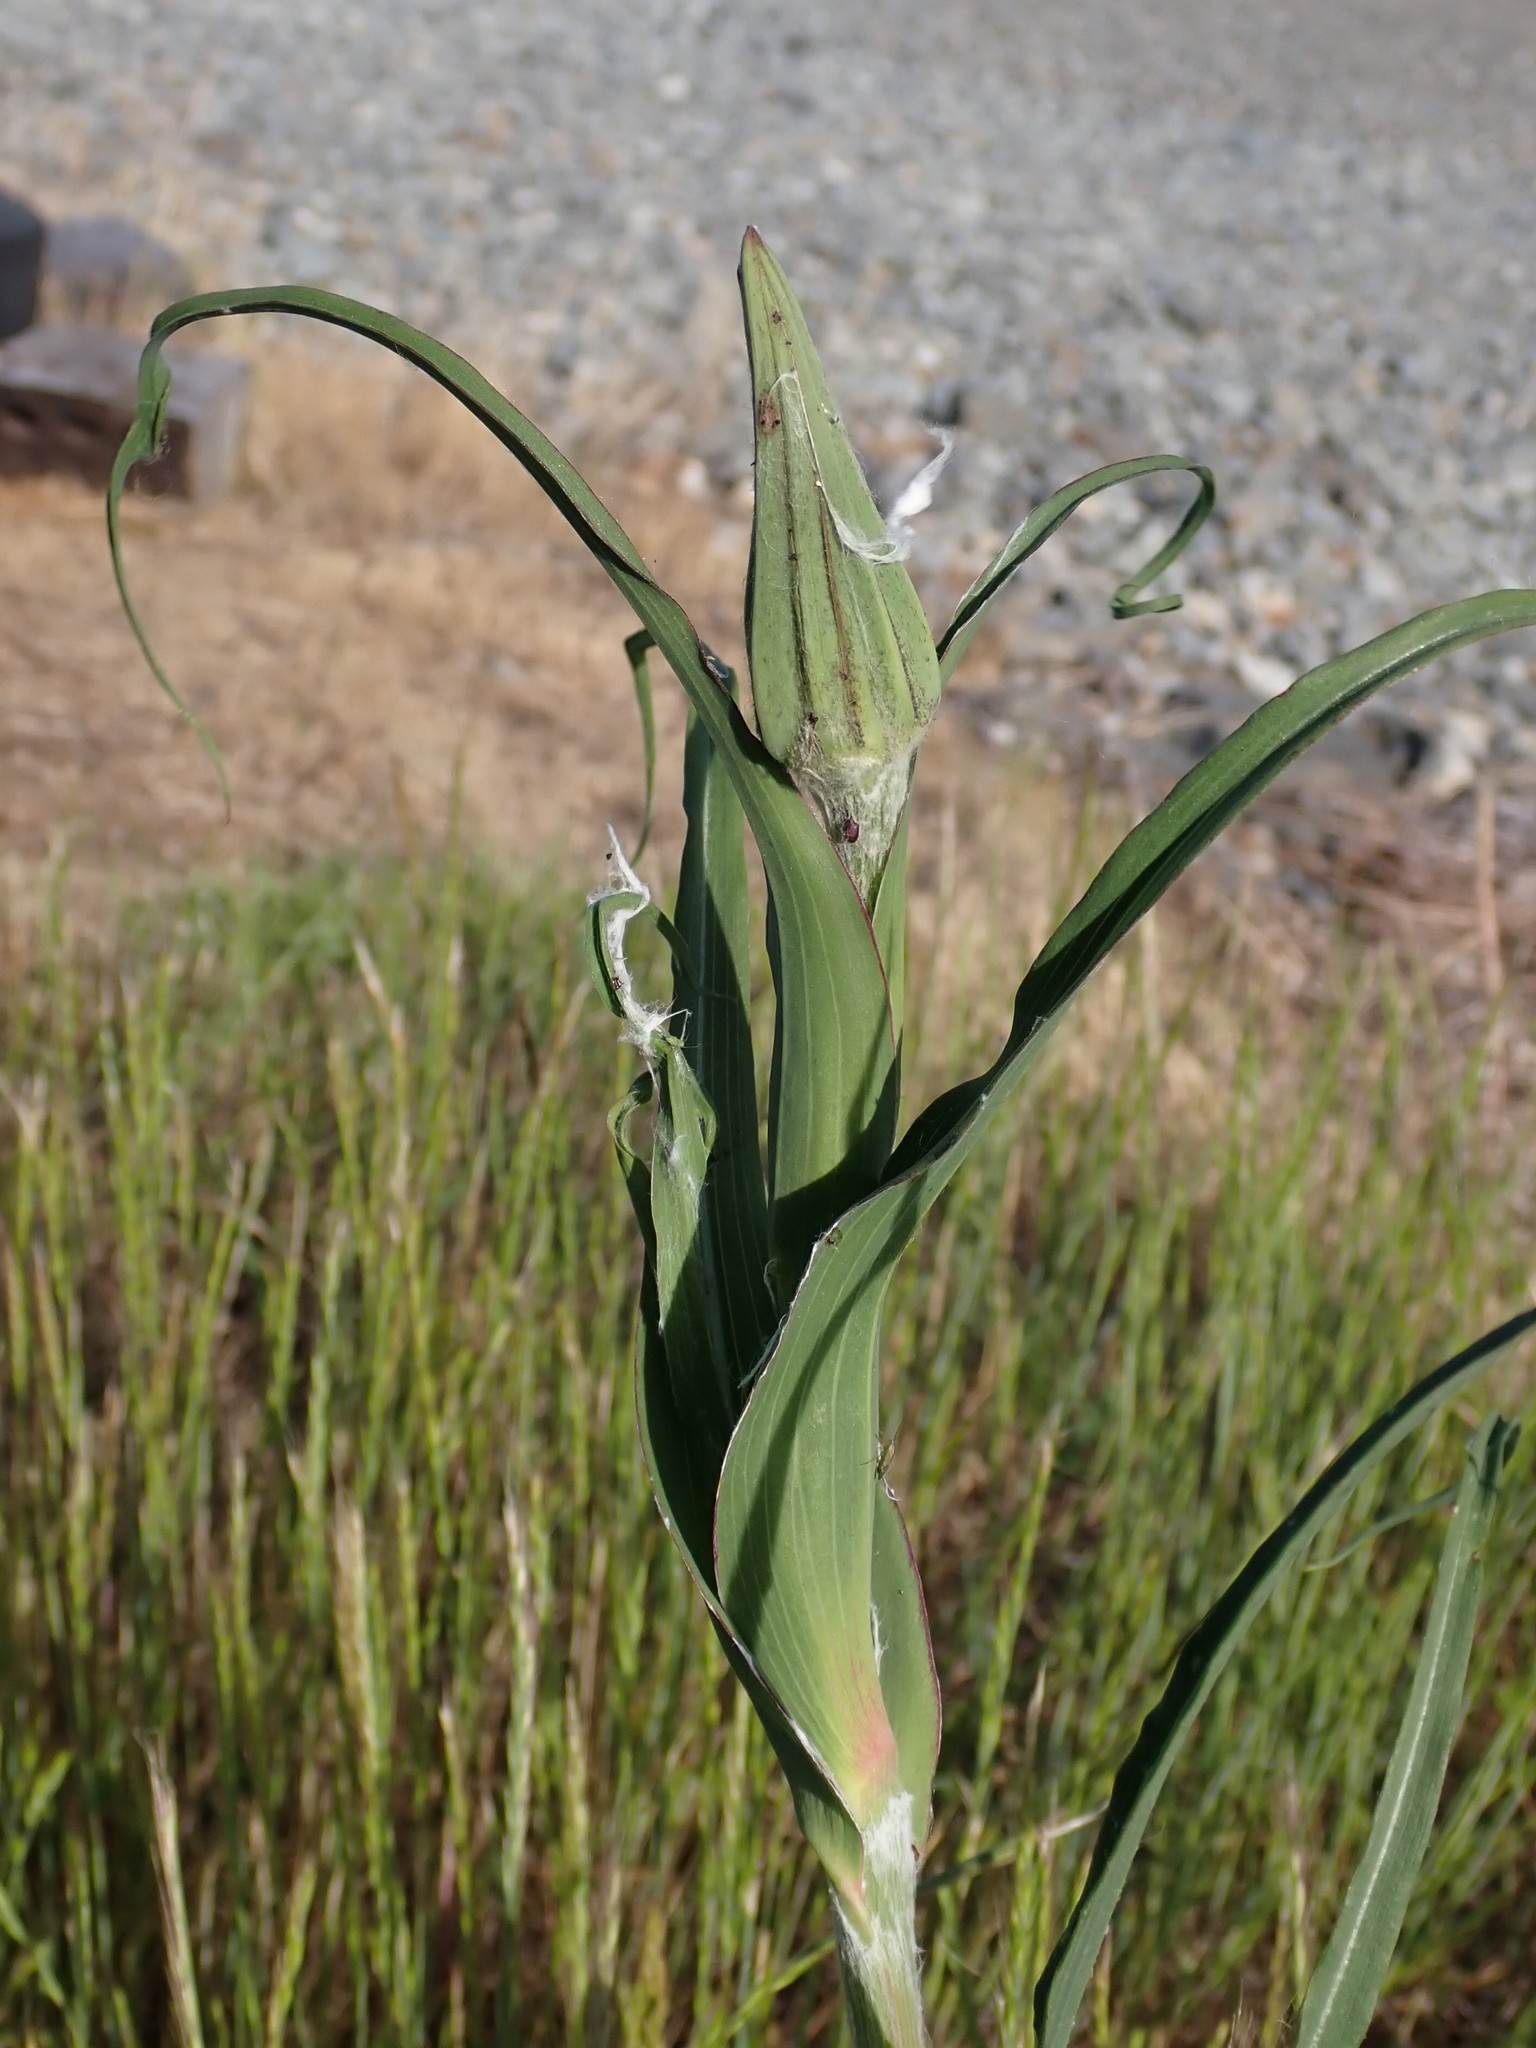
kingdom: Plantae
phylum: Tracheophyta
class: Magnoliopsida
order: Asterales
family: Asteraceae
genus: Tragopogon
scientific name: Tragopogon dubius
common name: Yellow salsify
